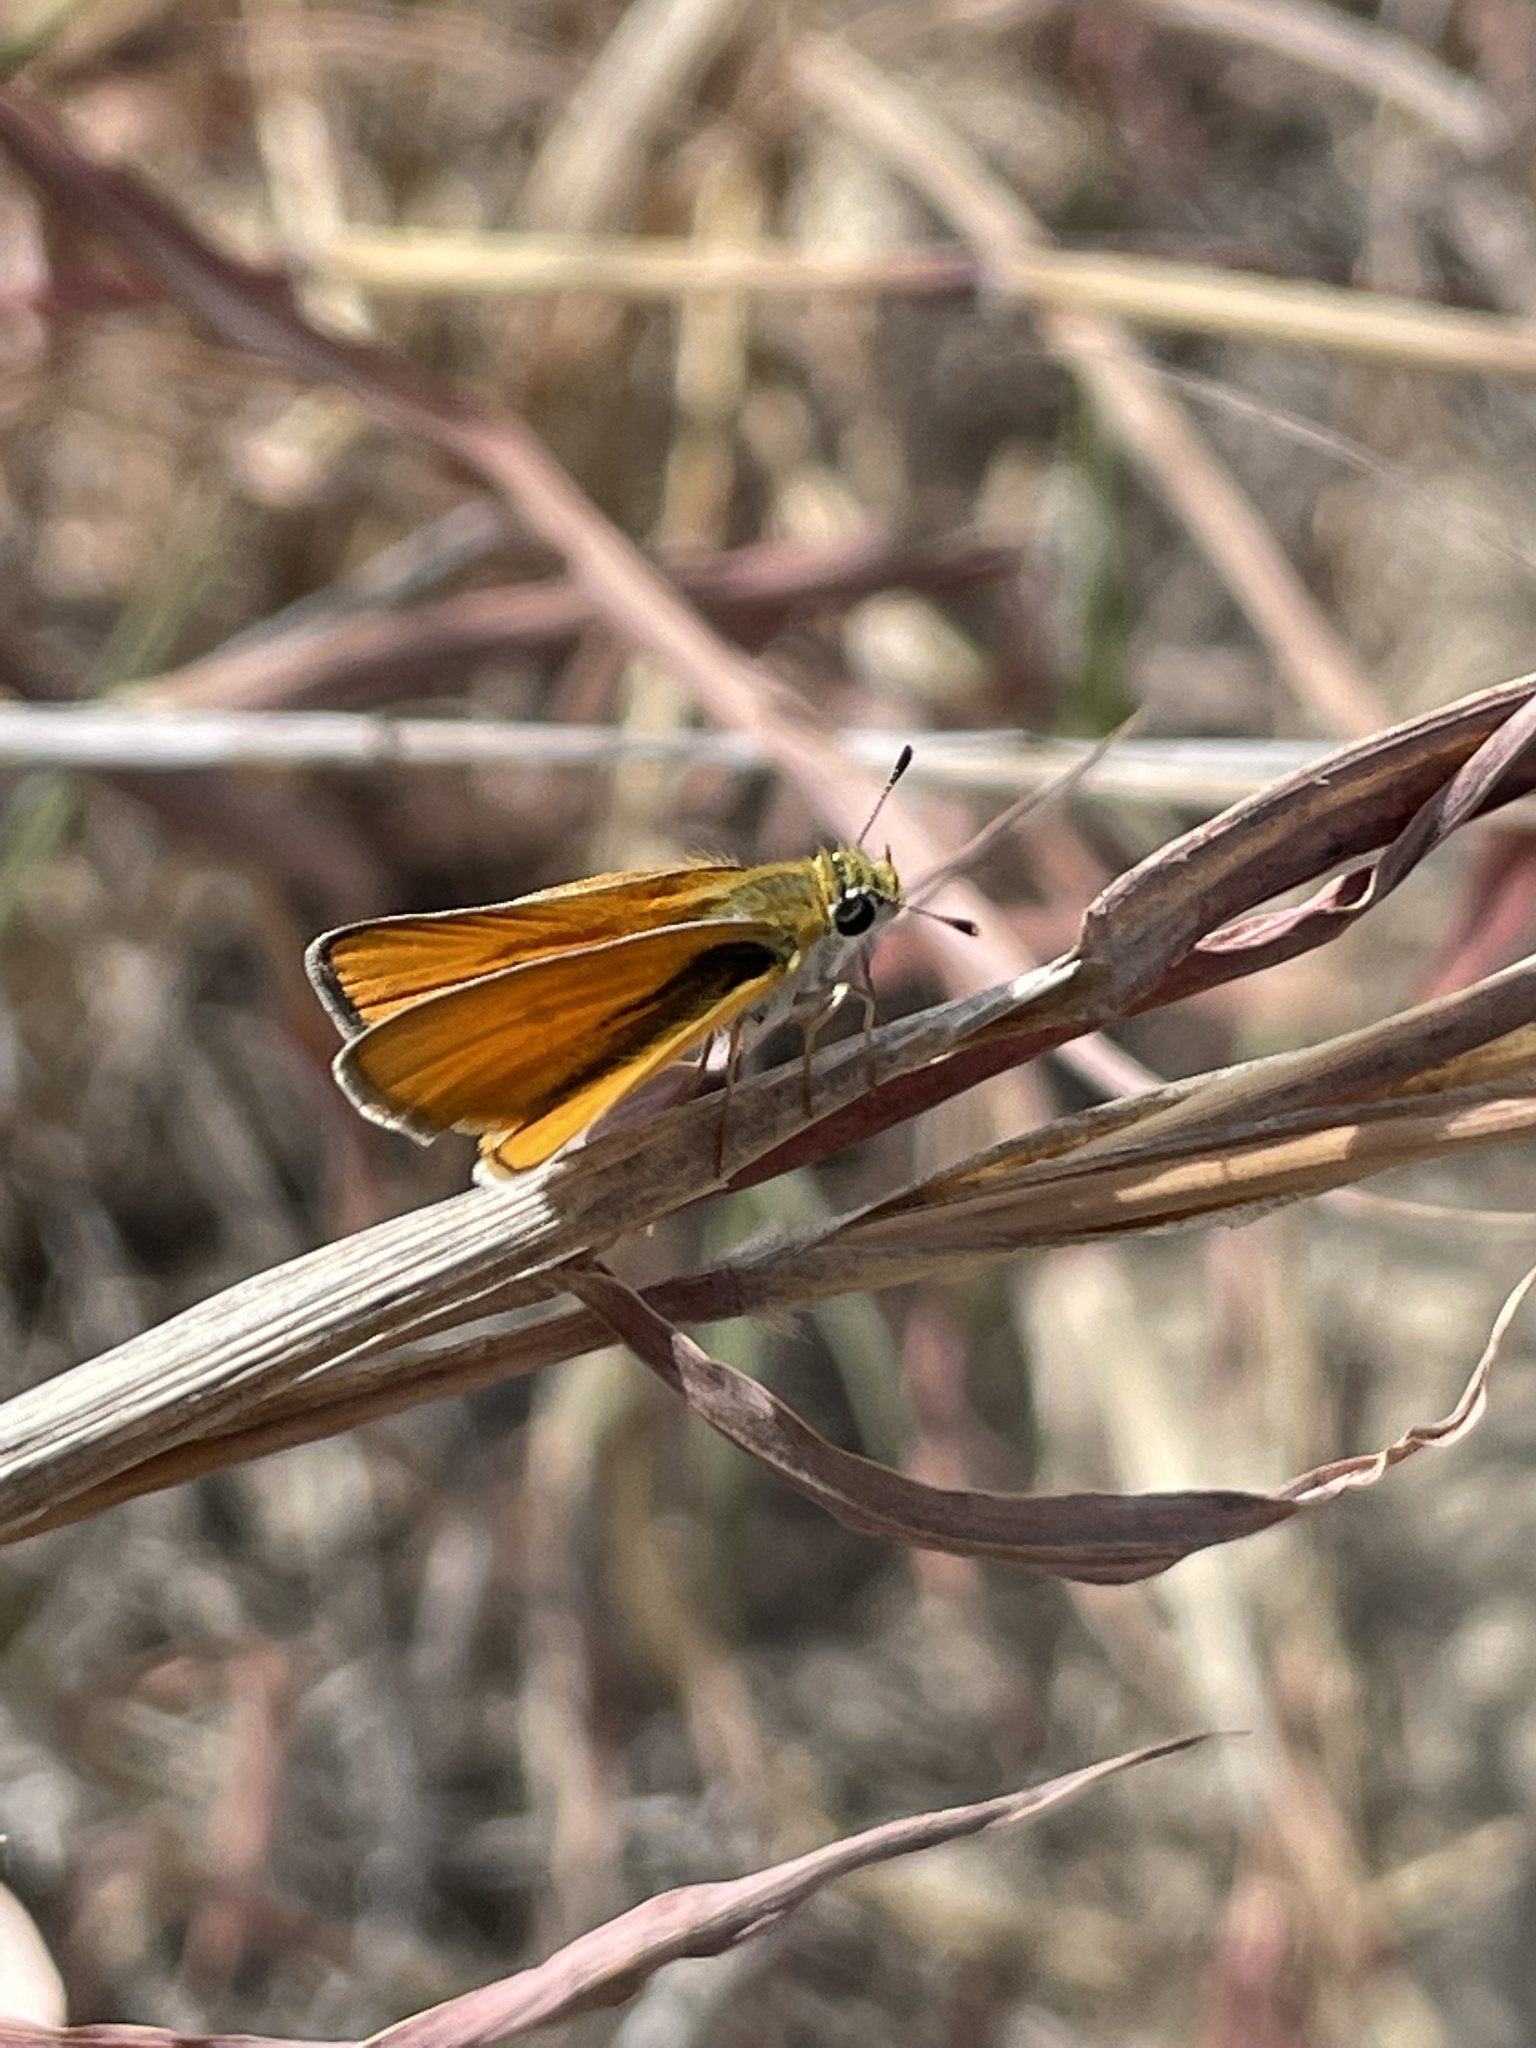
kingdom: Animalia
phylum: Arthropoda
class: Insecta
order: Lepidoptera
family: Hesperiidae
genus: Copaeodes
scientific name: Copaeodes aurantiaca
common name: Orange skipperling
